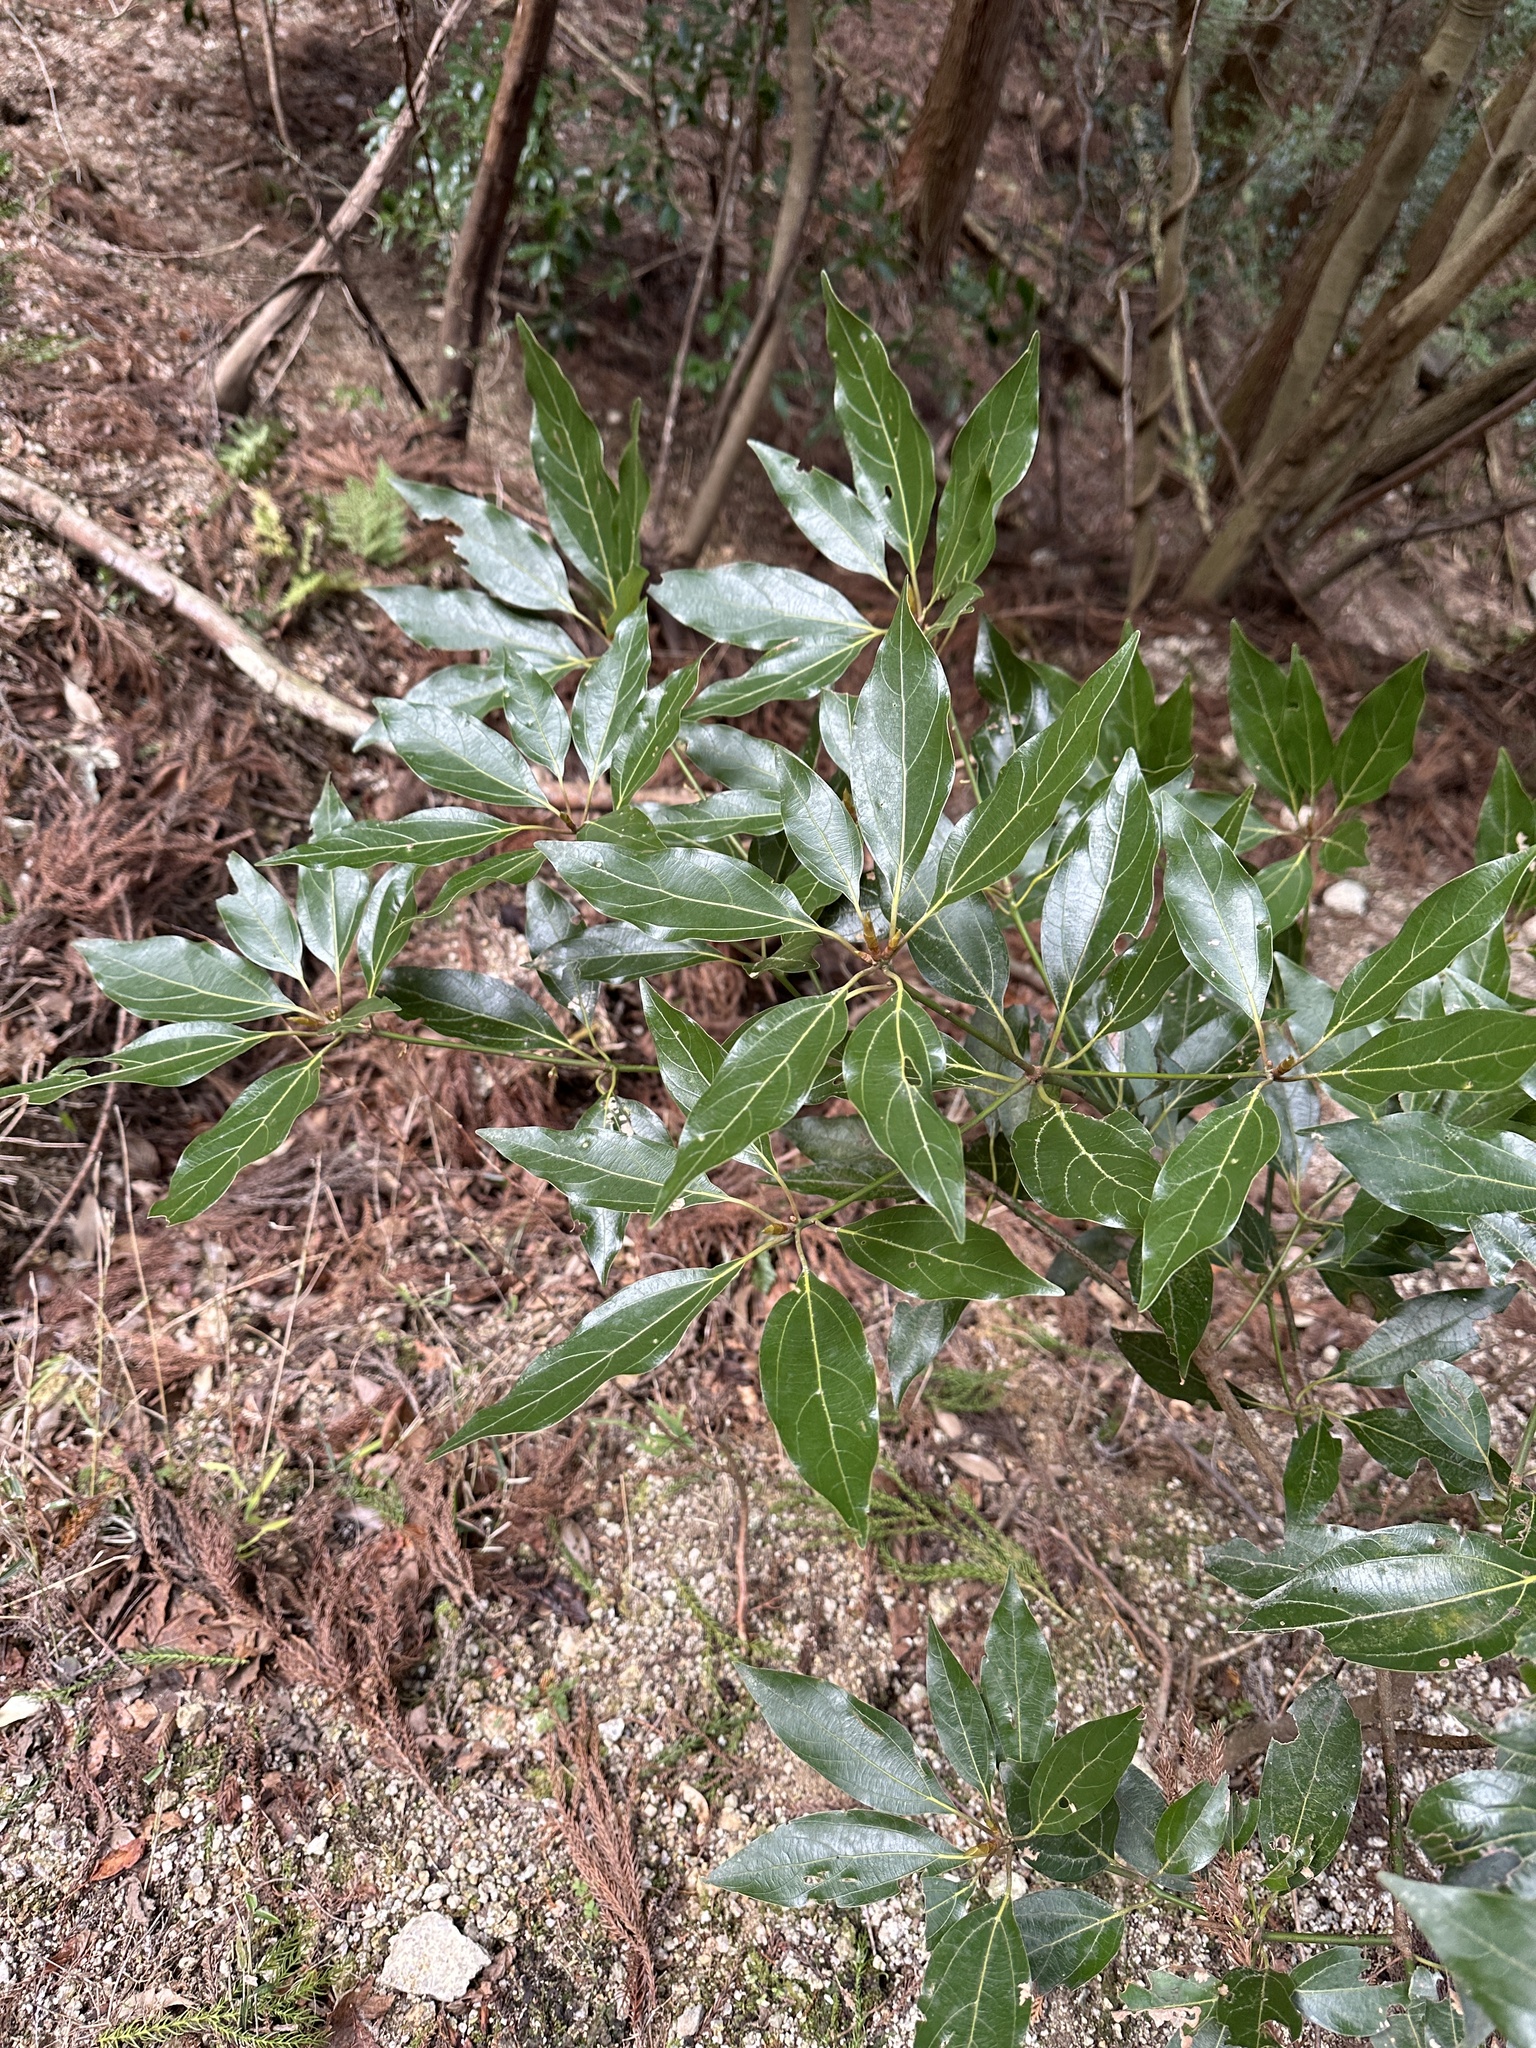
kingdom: Plantae
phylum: Tracheophyta
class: Magnoliopsida
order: Laurales
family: Lauraceae
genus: Neolitsea
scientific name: Neolitsea sericea
